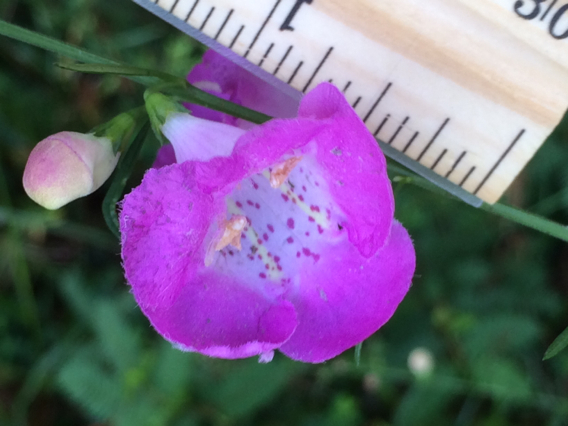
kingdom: Plantae
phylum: Tracheophyta
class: Magnoliopsida
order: Lamiales
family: Orobanchaceae
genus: Agalinis
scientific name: Agalinis fasciculata
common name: Beach false foxglove
